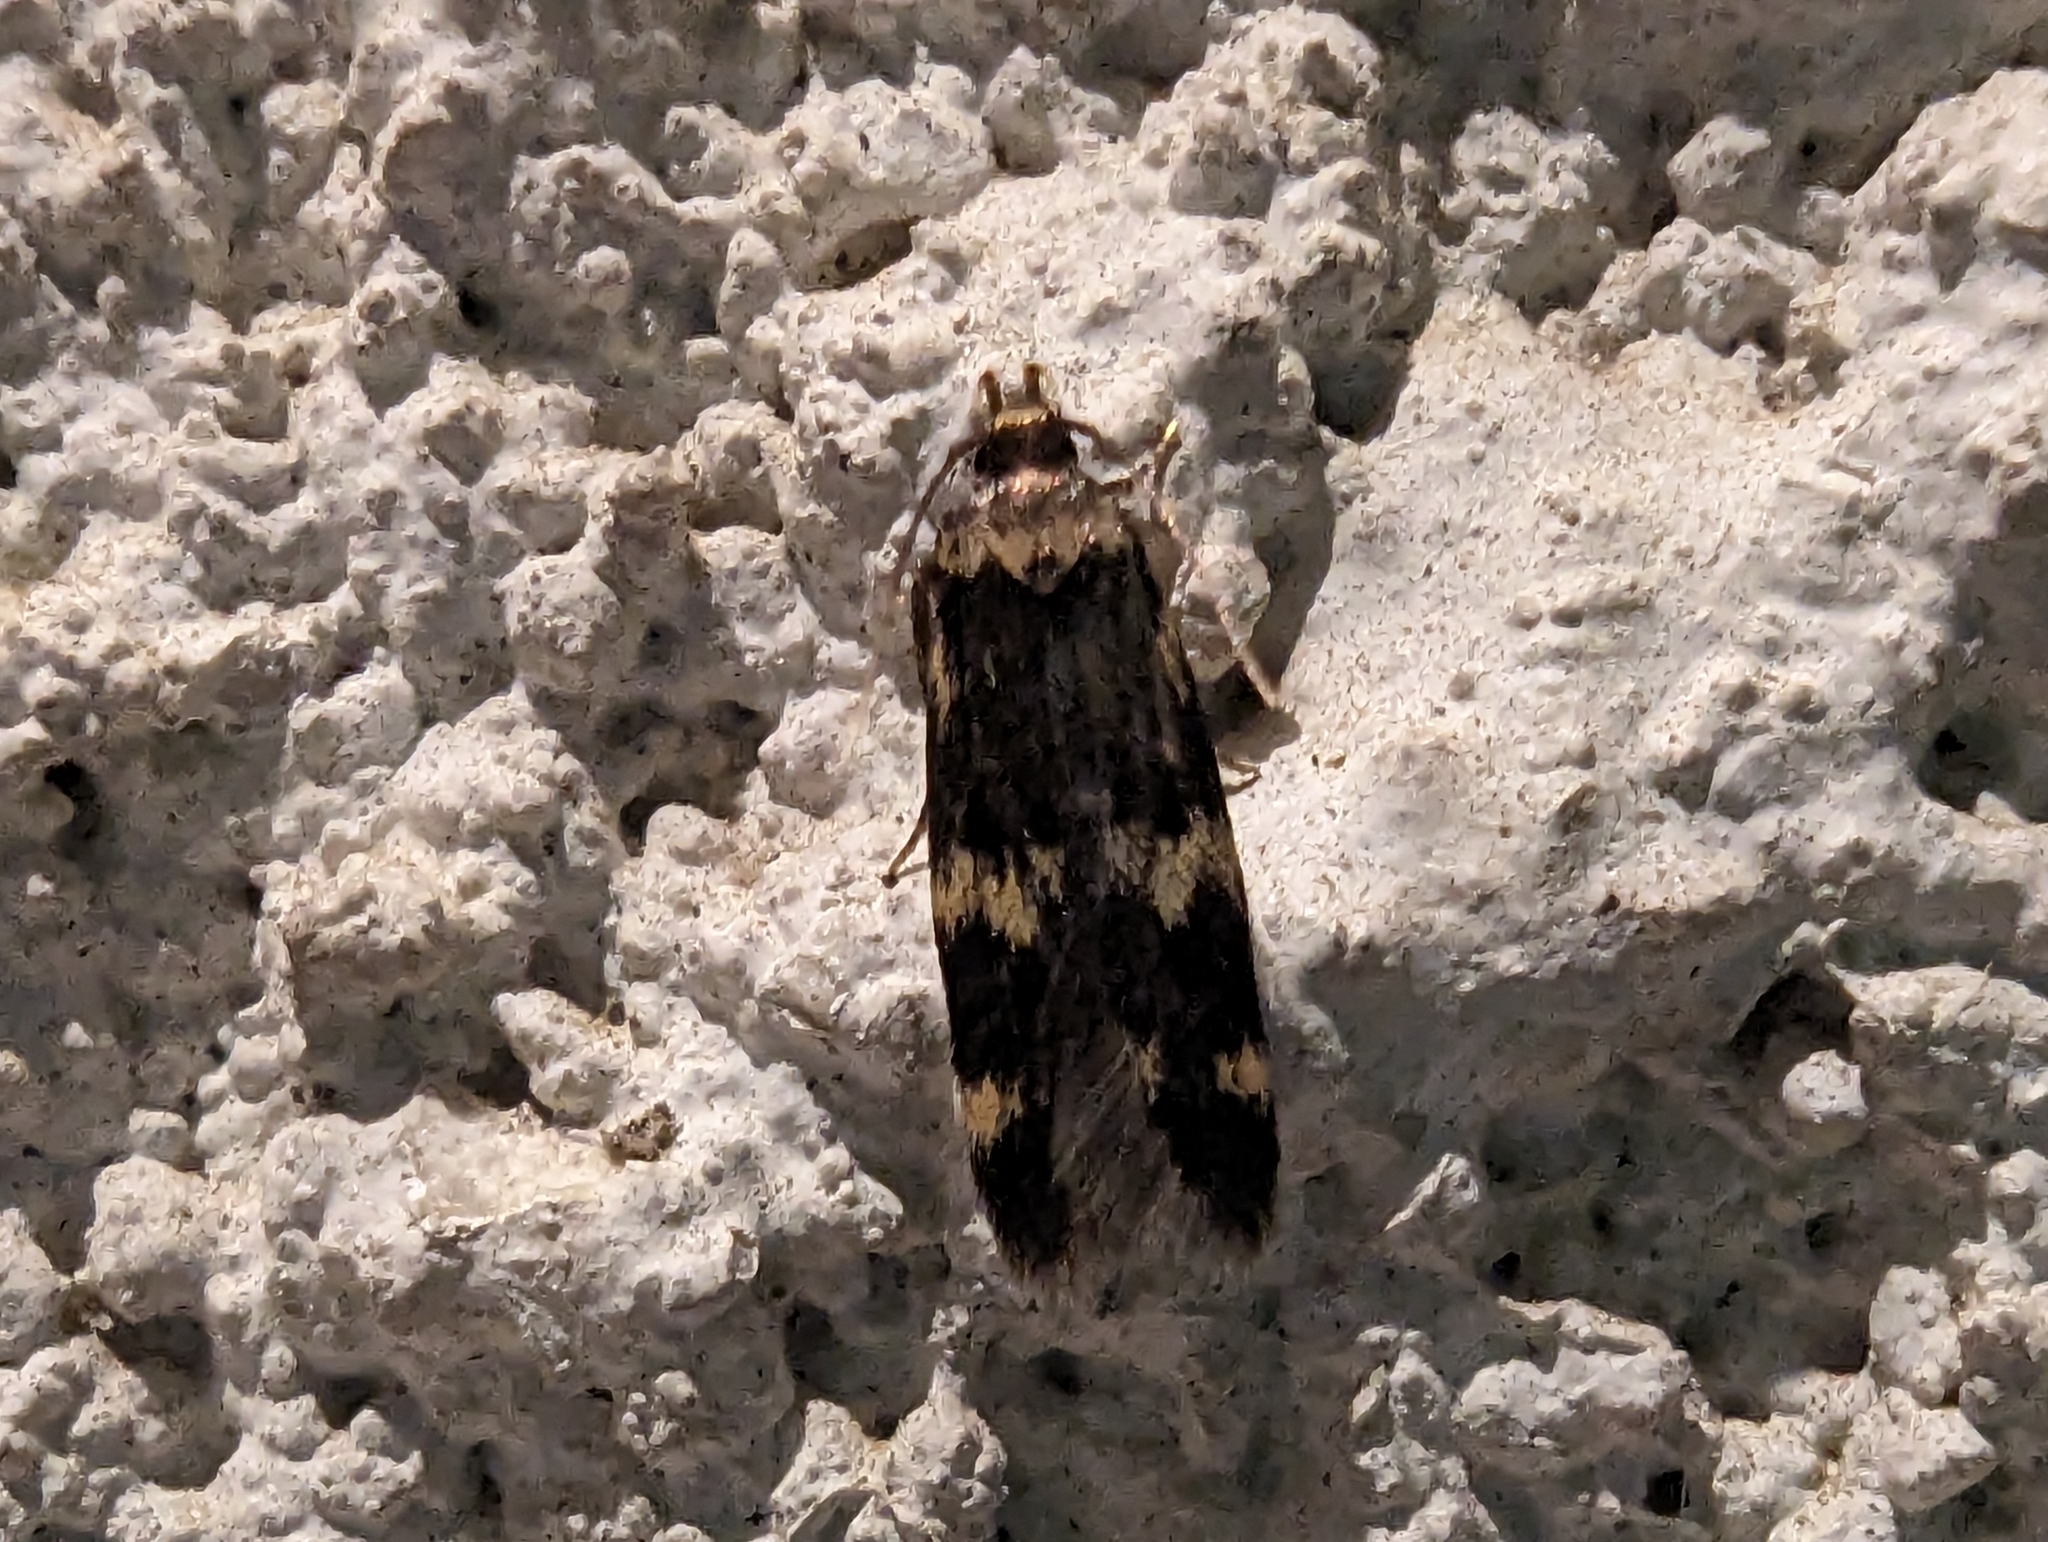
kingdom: Animalia
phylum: Arthropoda
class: Insecta
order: Lepidoptera
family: Autostichidae
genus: Oegoconia
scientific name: Oegoconia quadripuncta
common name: Four-spotted obscure
